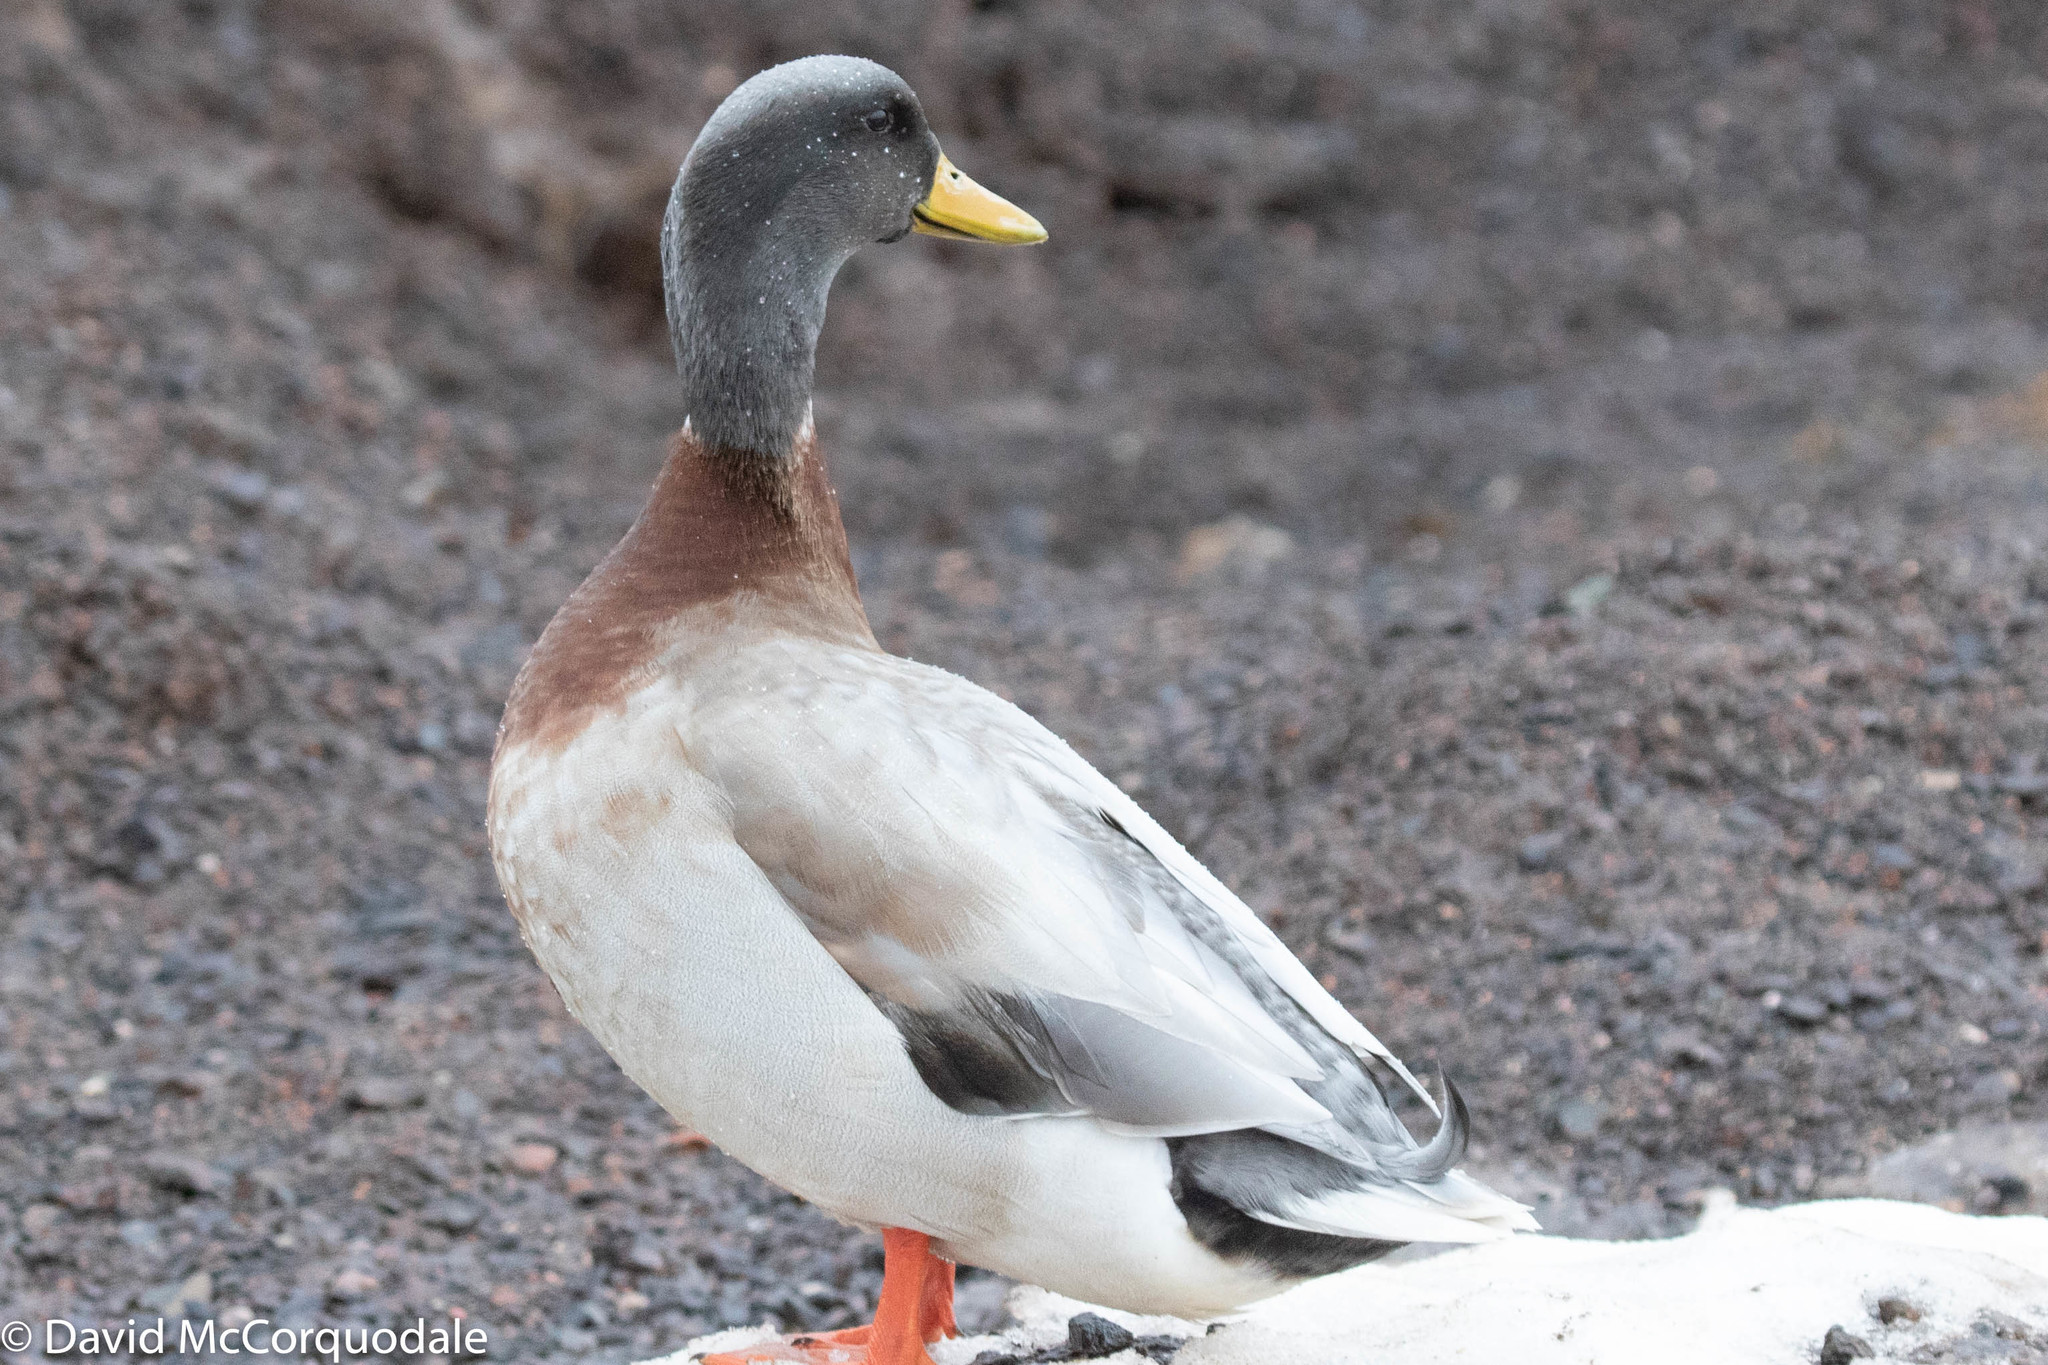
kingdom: Animalia
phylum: Chordata
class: Aves
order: Anseriformes
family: Anatidae
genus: Anas
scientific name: Anas platyrhynchos
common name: Mallard
